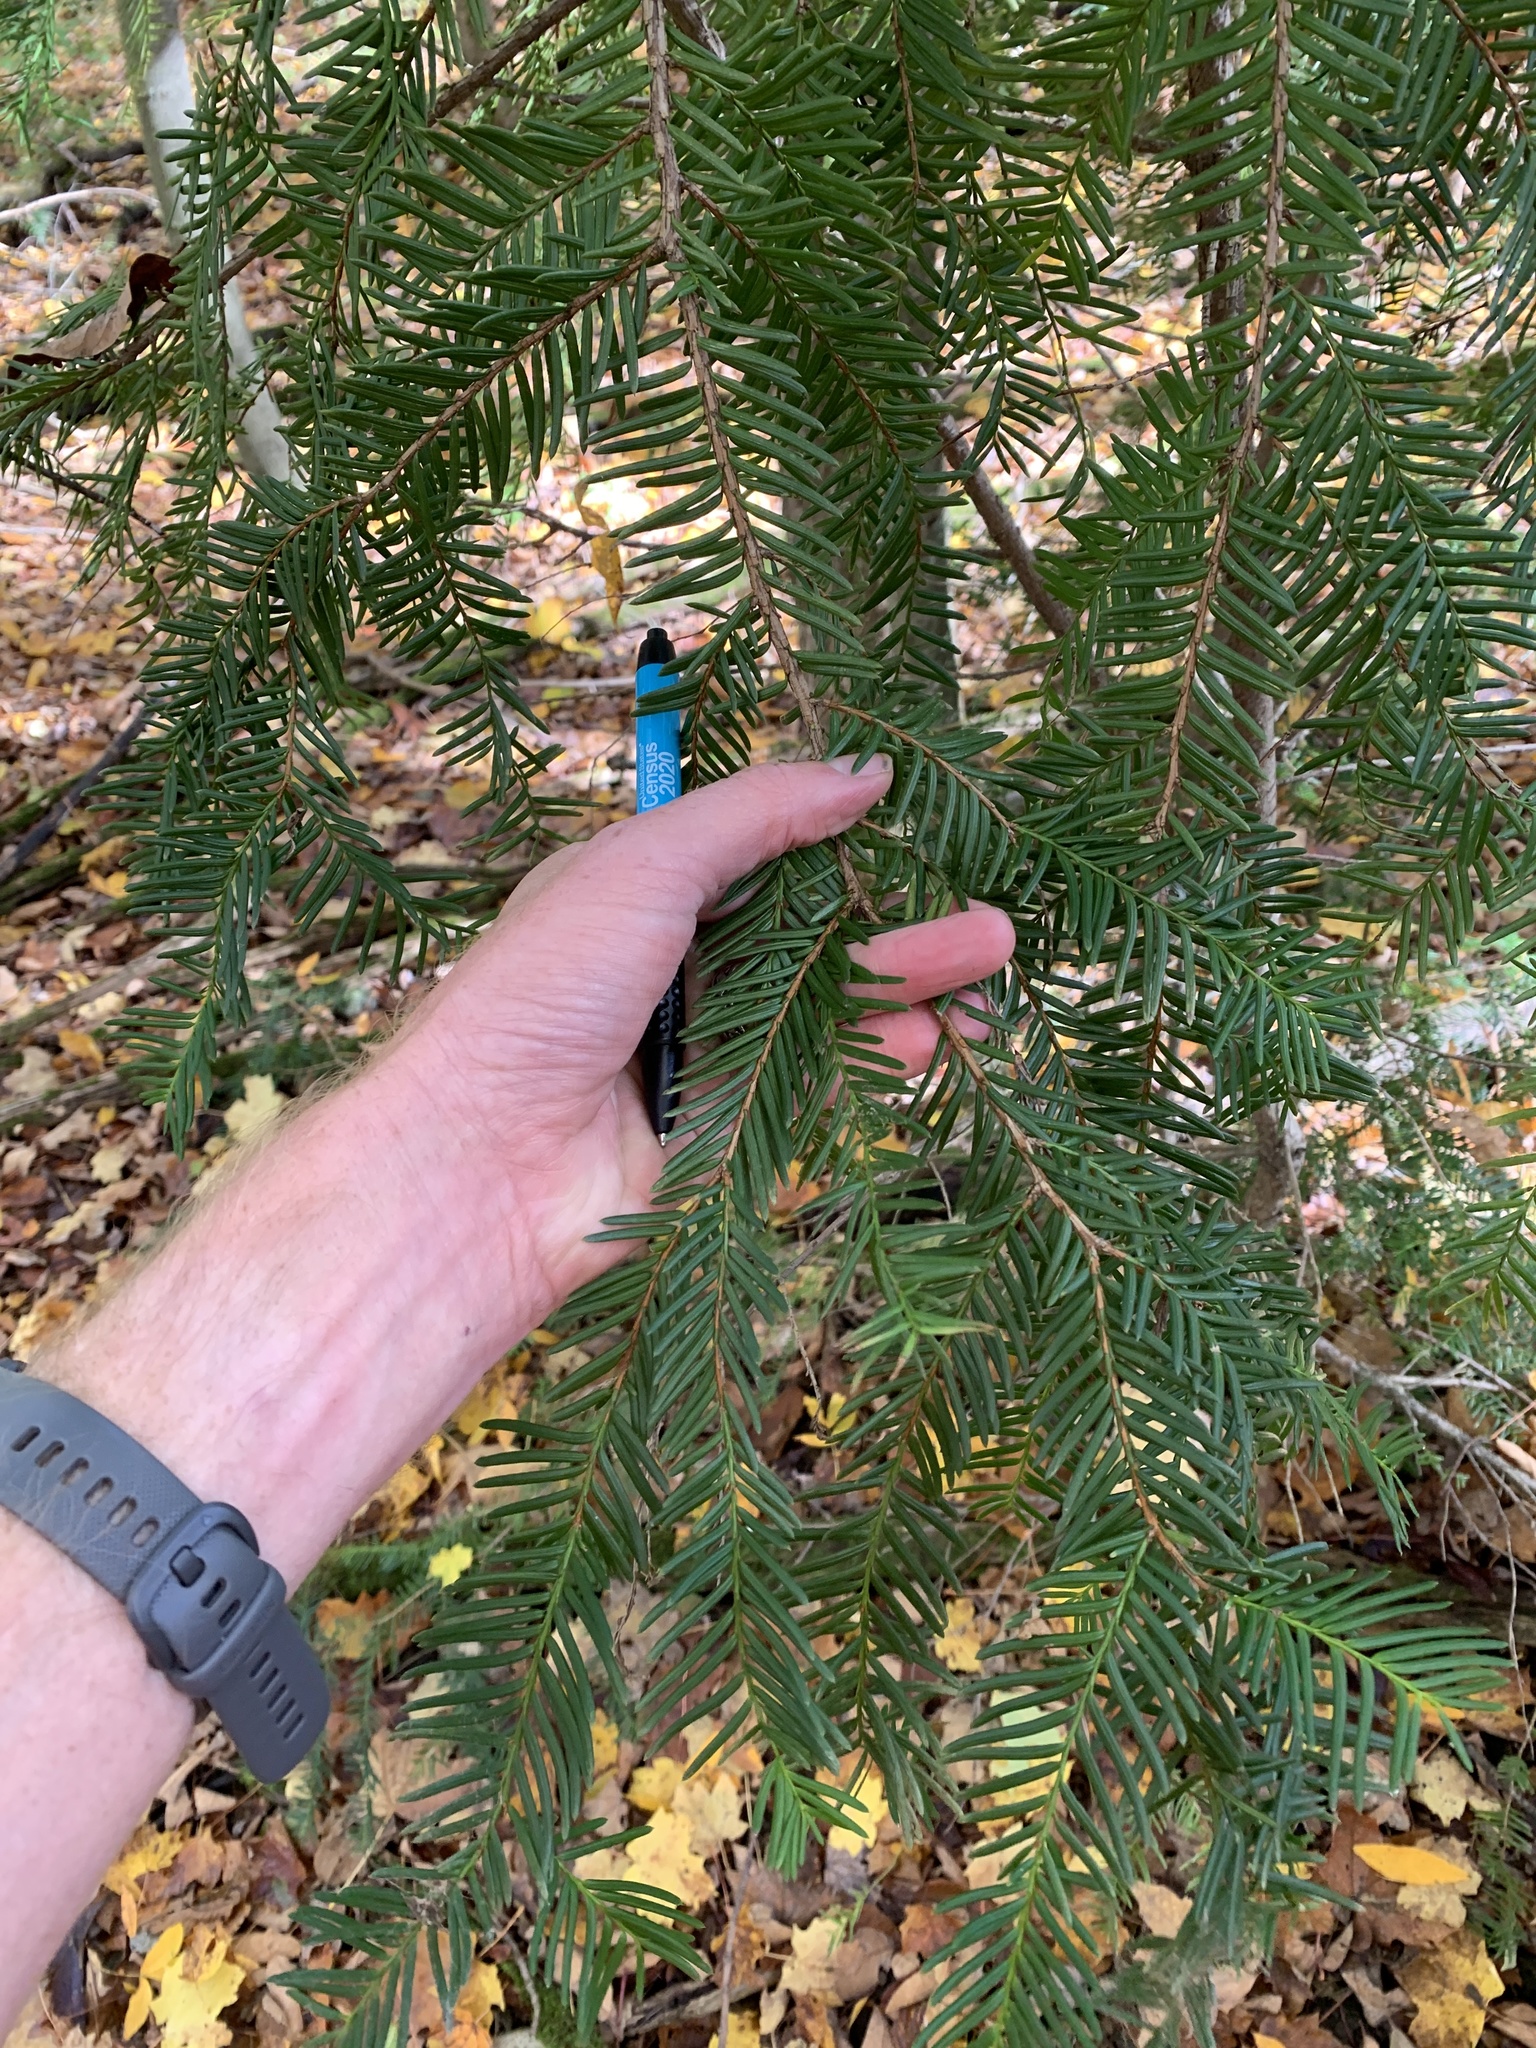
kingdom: Plantae
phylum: Tracheophyta
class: Pinopsida
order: Pinales
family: Taxaceae
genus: Taxus
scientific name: Taxus baccata
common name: Yew
